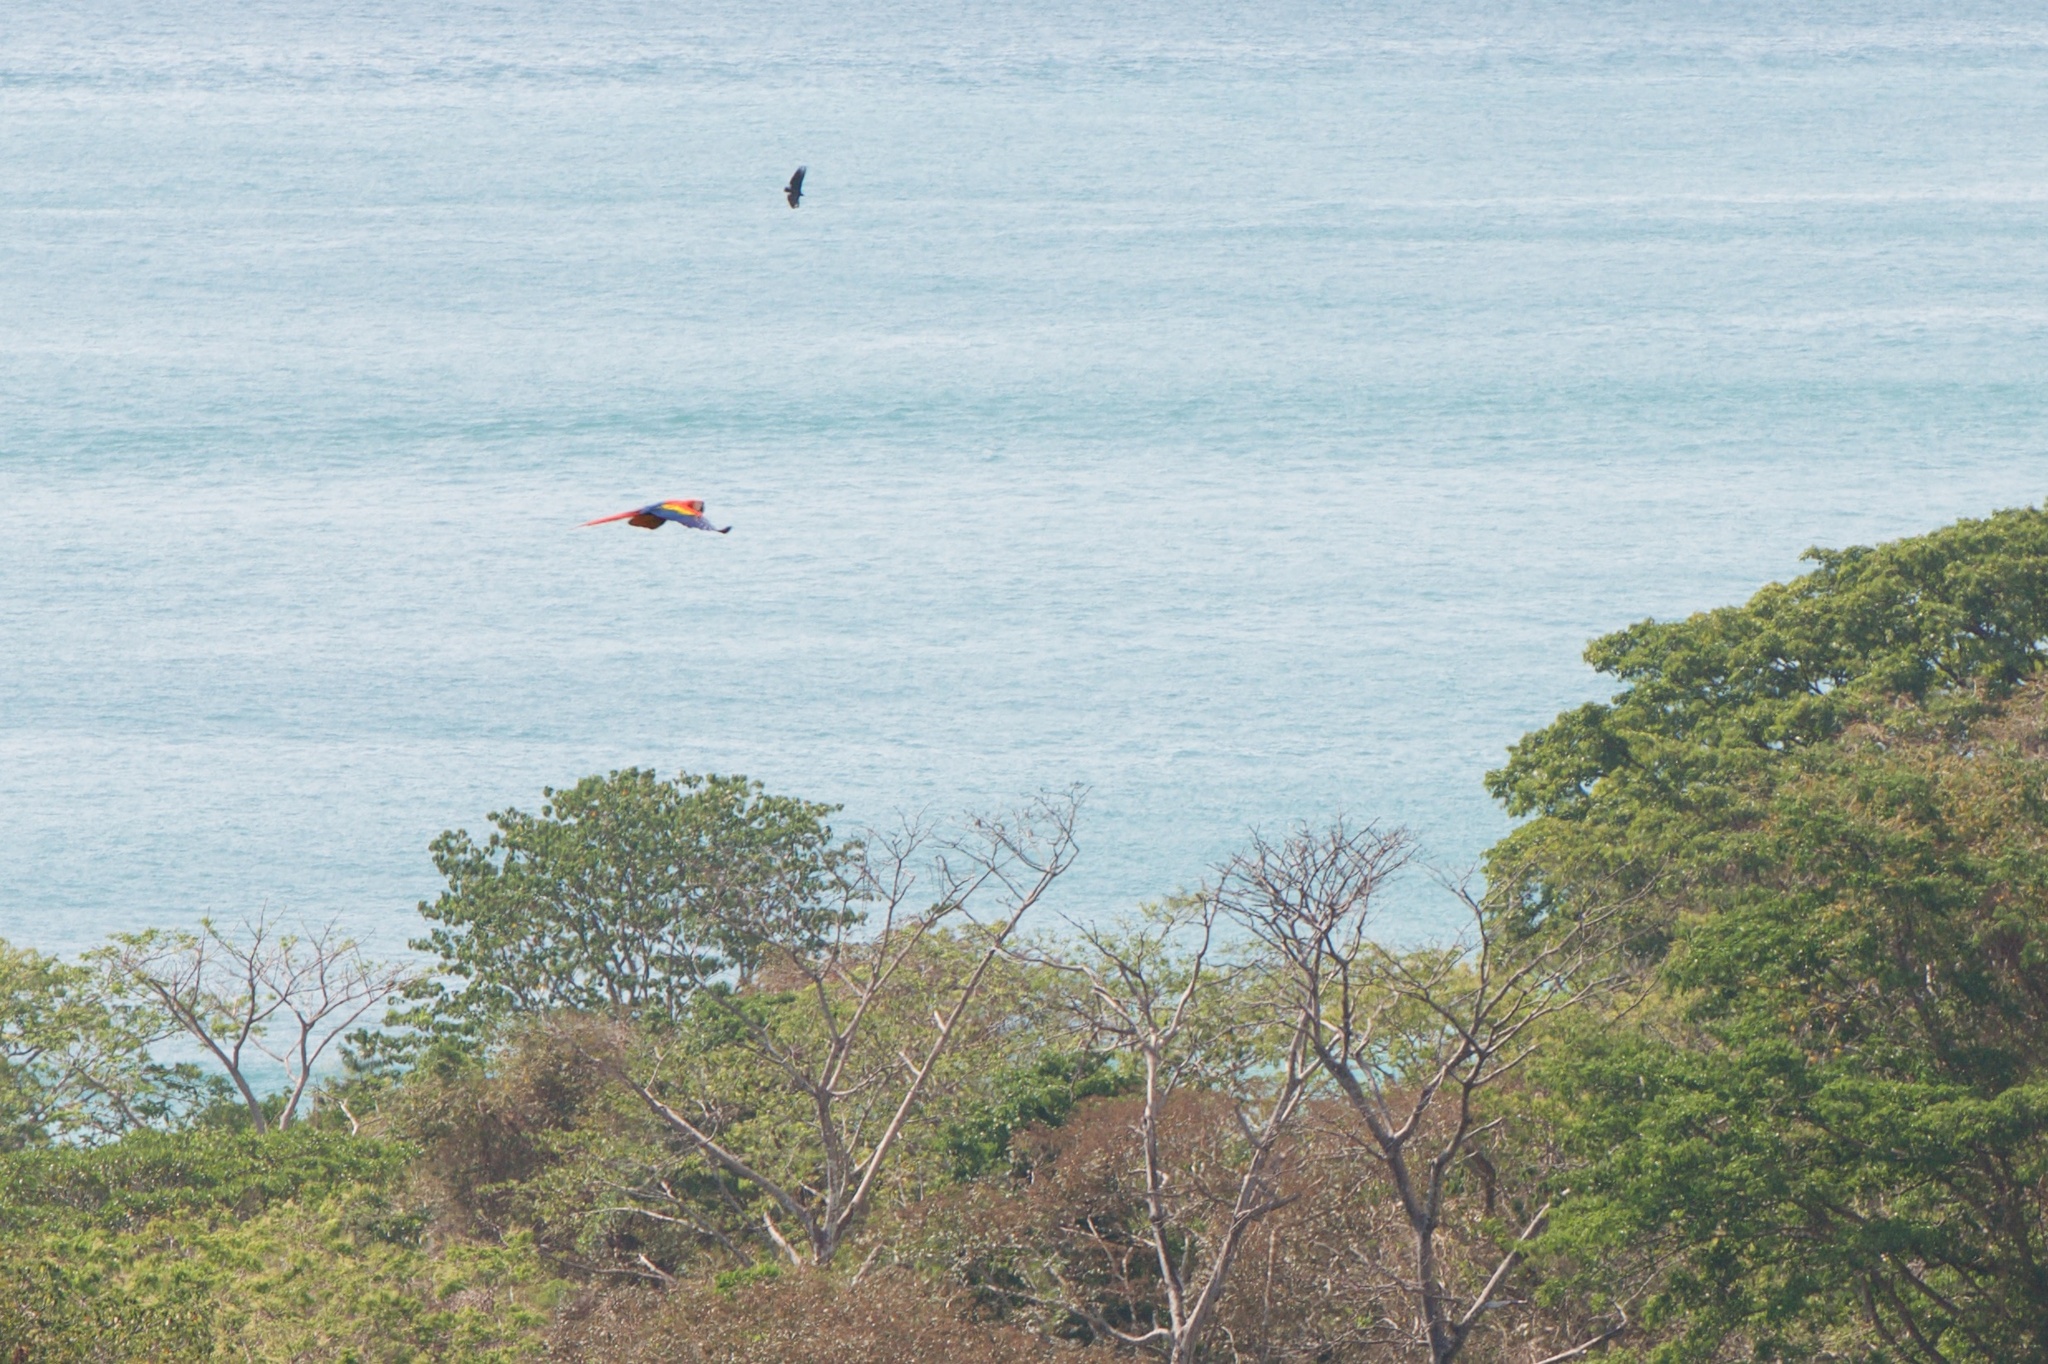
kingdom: Animalia
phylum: Chordata
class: Aves
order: Psittaciformes
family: Psittacidae
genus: Ara
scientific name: Ara macao
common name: Scarlet macaw
